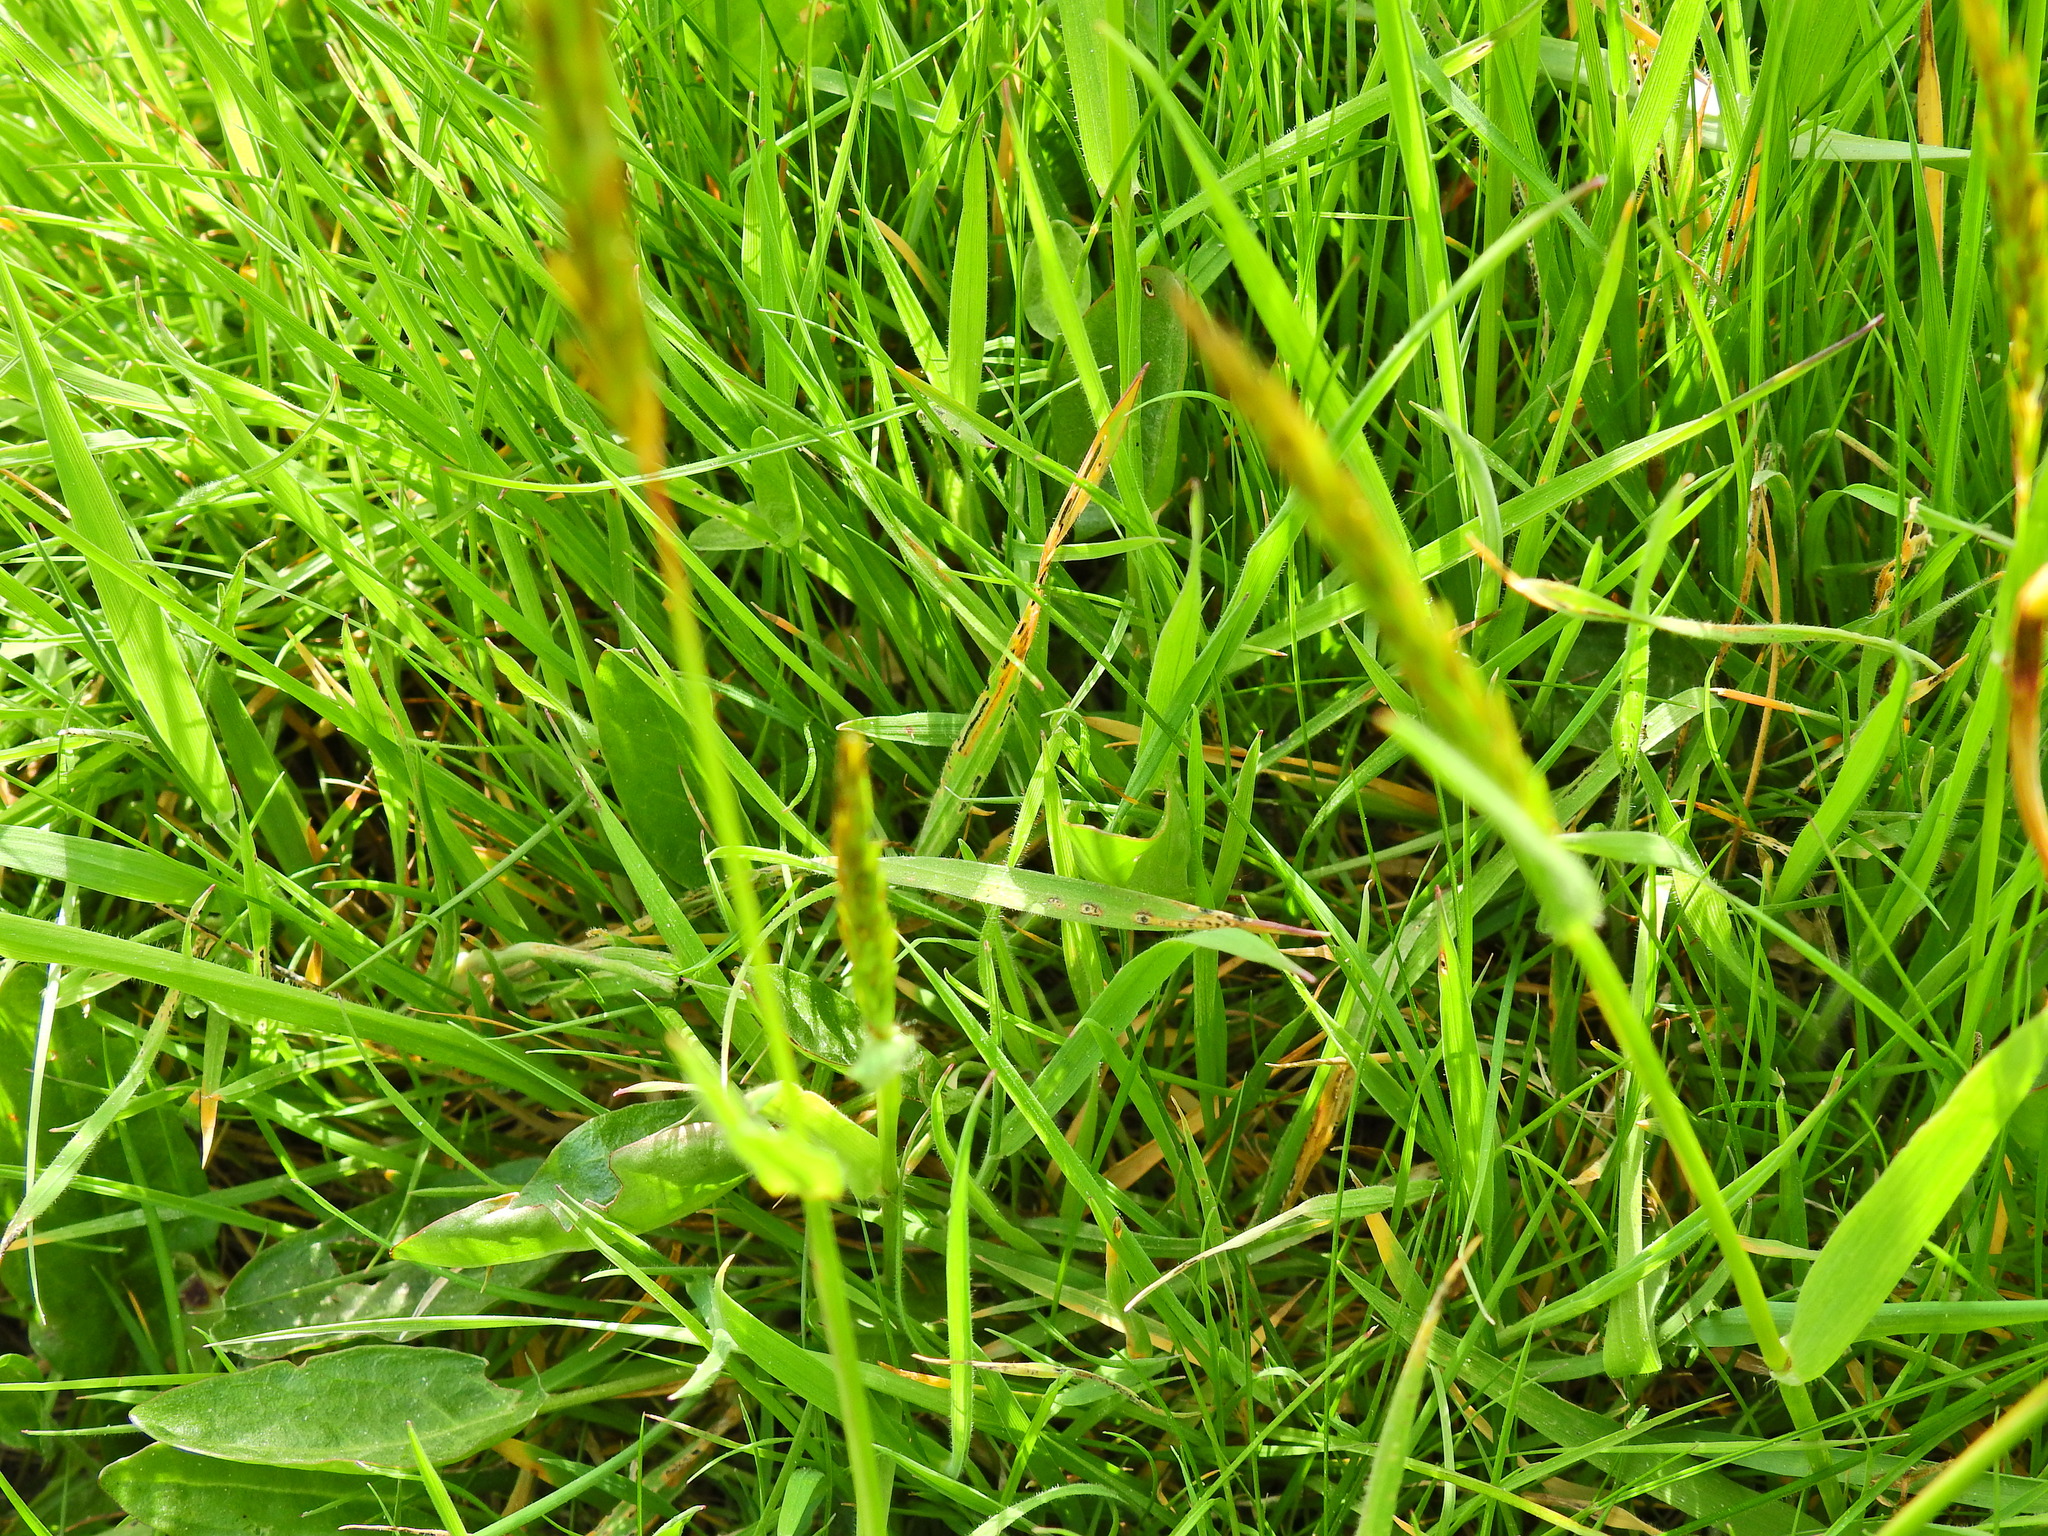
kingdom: Plantae
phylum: Tracheophyta
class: Liliopsida
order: Poales
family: Poaceae
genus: Anthoxanthum
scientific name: Anthoxanthum odoratum
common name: Sweet vernalgrass
